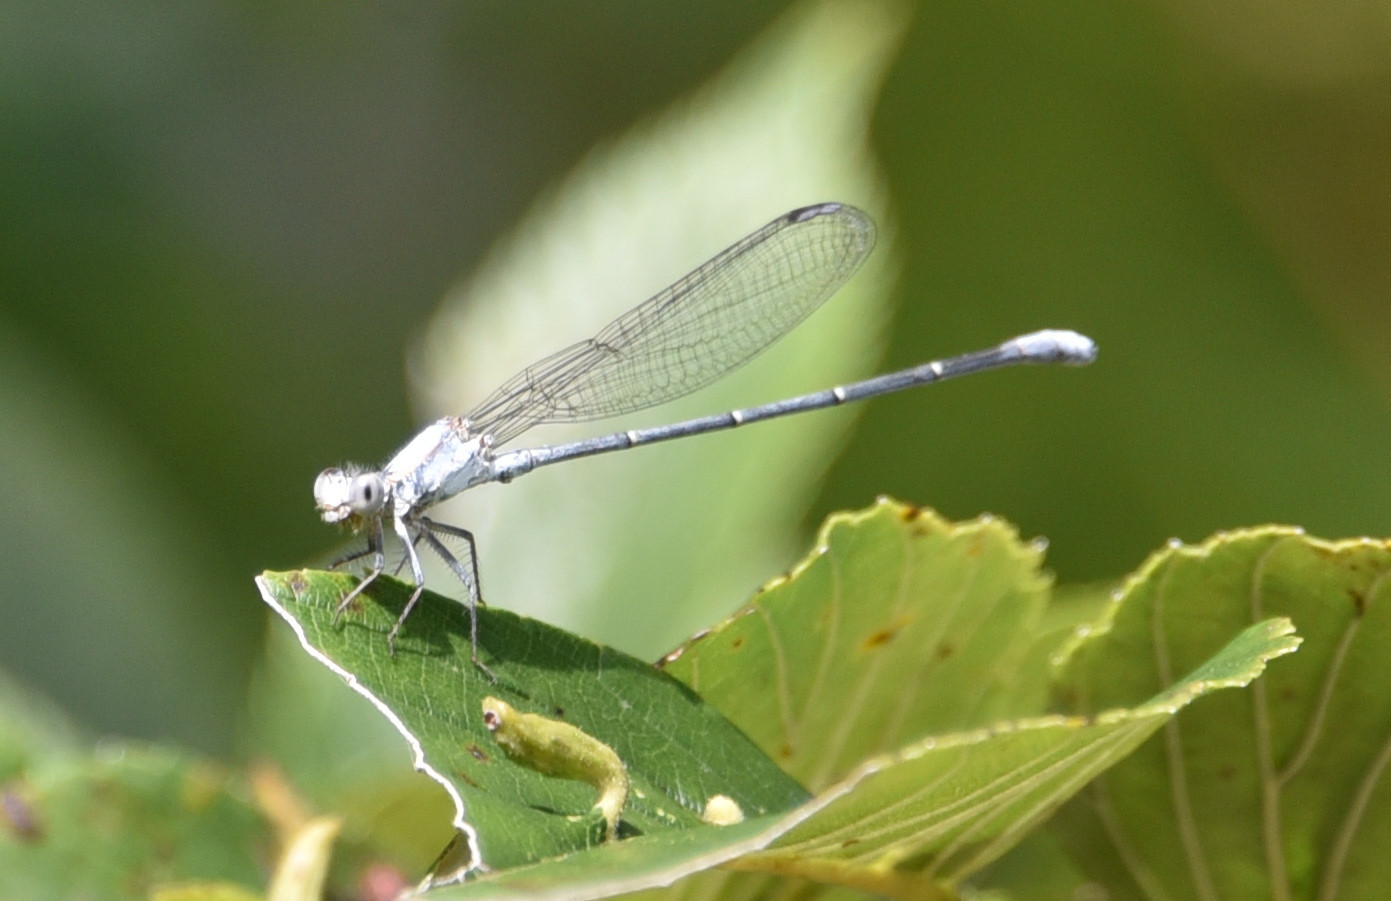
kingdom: Animalia
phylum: Arthropoda
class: Insecta
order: Odonata
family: Coenagrionidae
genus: Argia
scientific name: Argia moesta
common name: Powdered dancer
